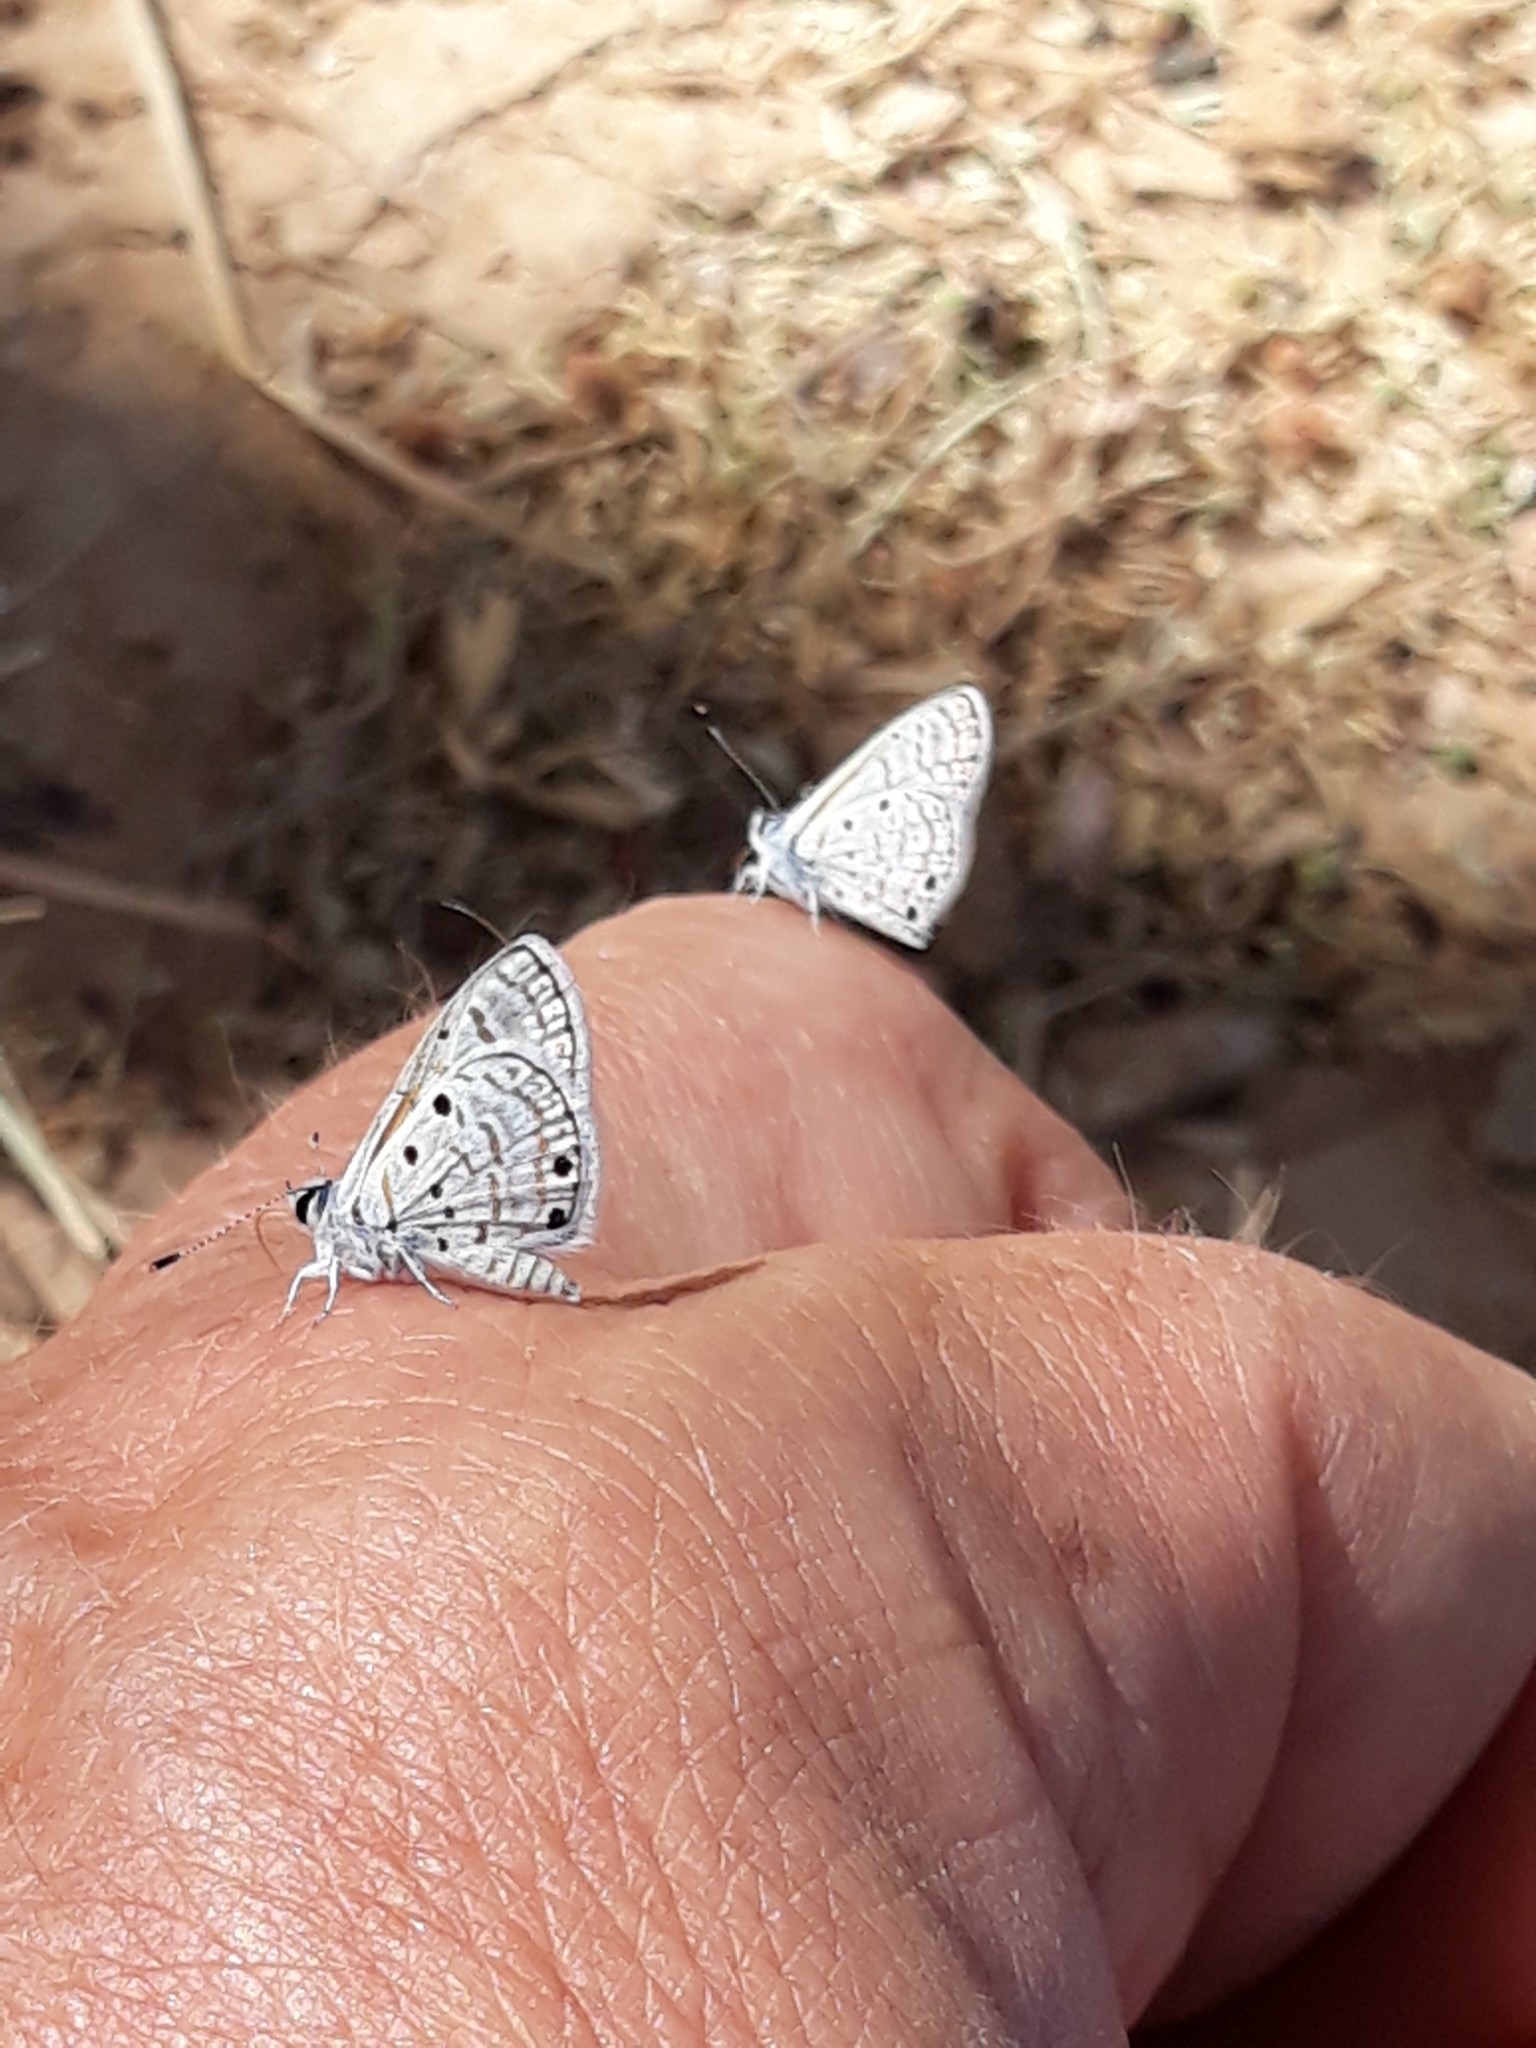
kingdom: Animalia
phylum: Arthropoda
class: Insecta
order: Lepidoptera
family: Lycaenidae
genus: Azanus
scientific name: Azanus ubaldus
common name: Desert babul blue
